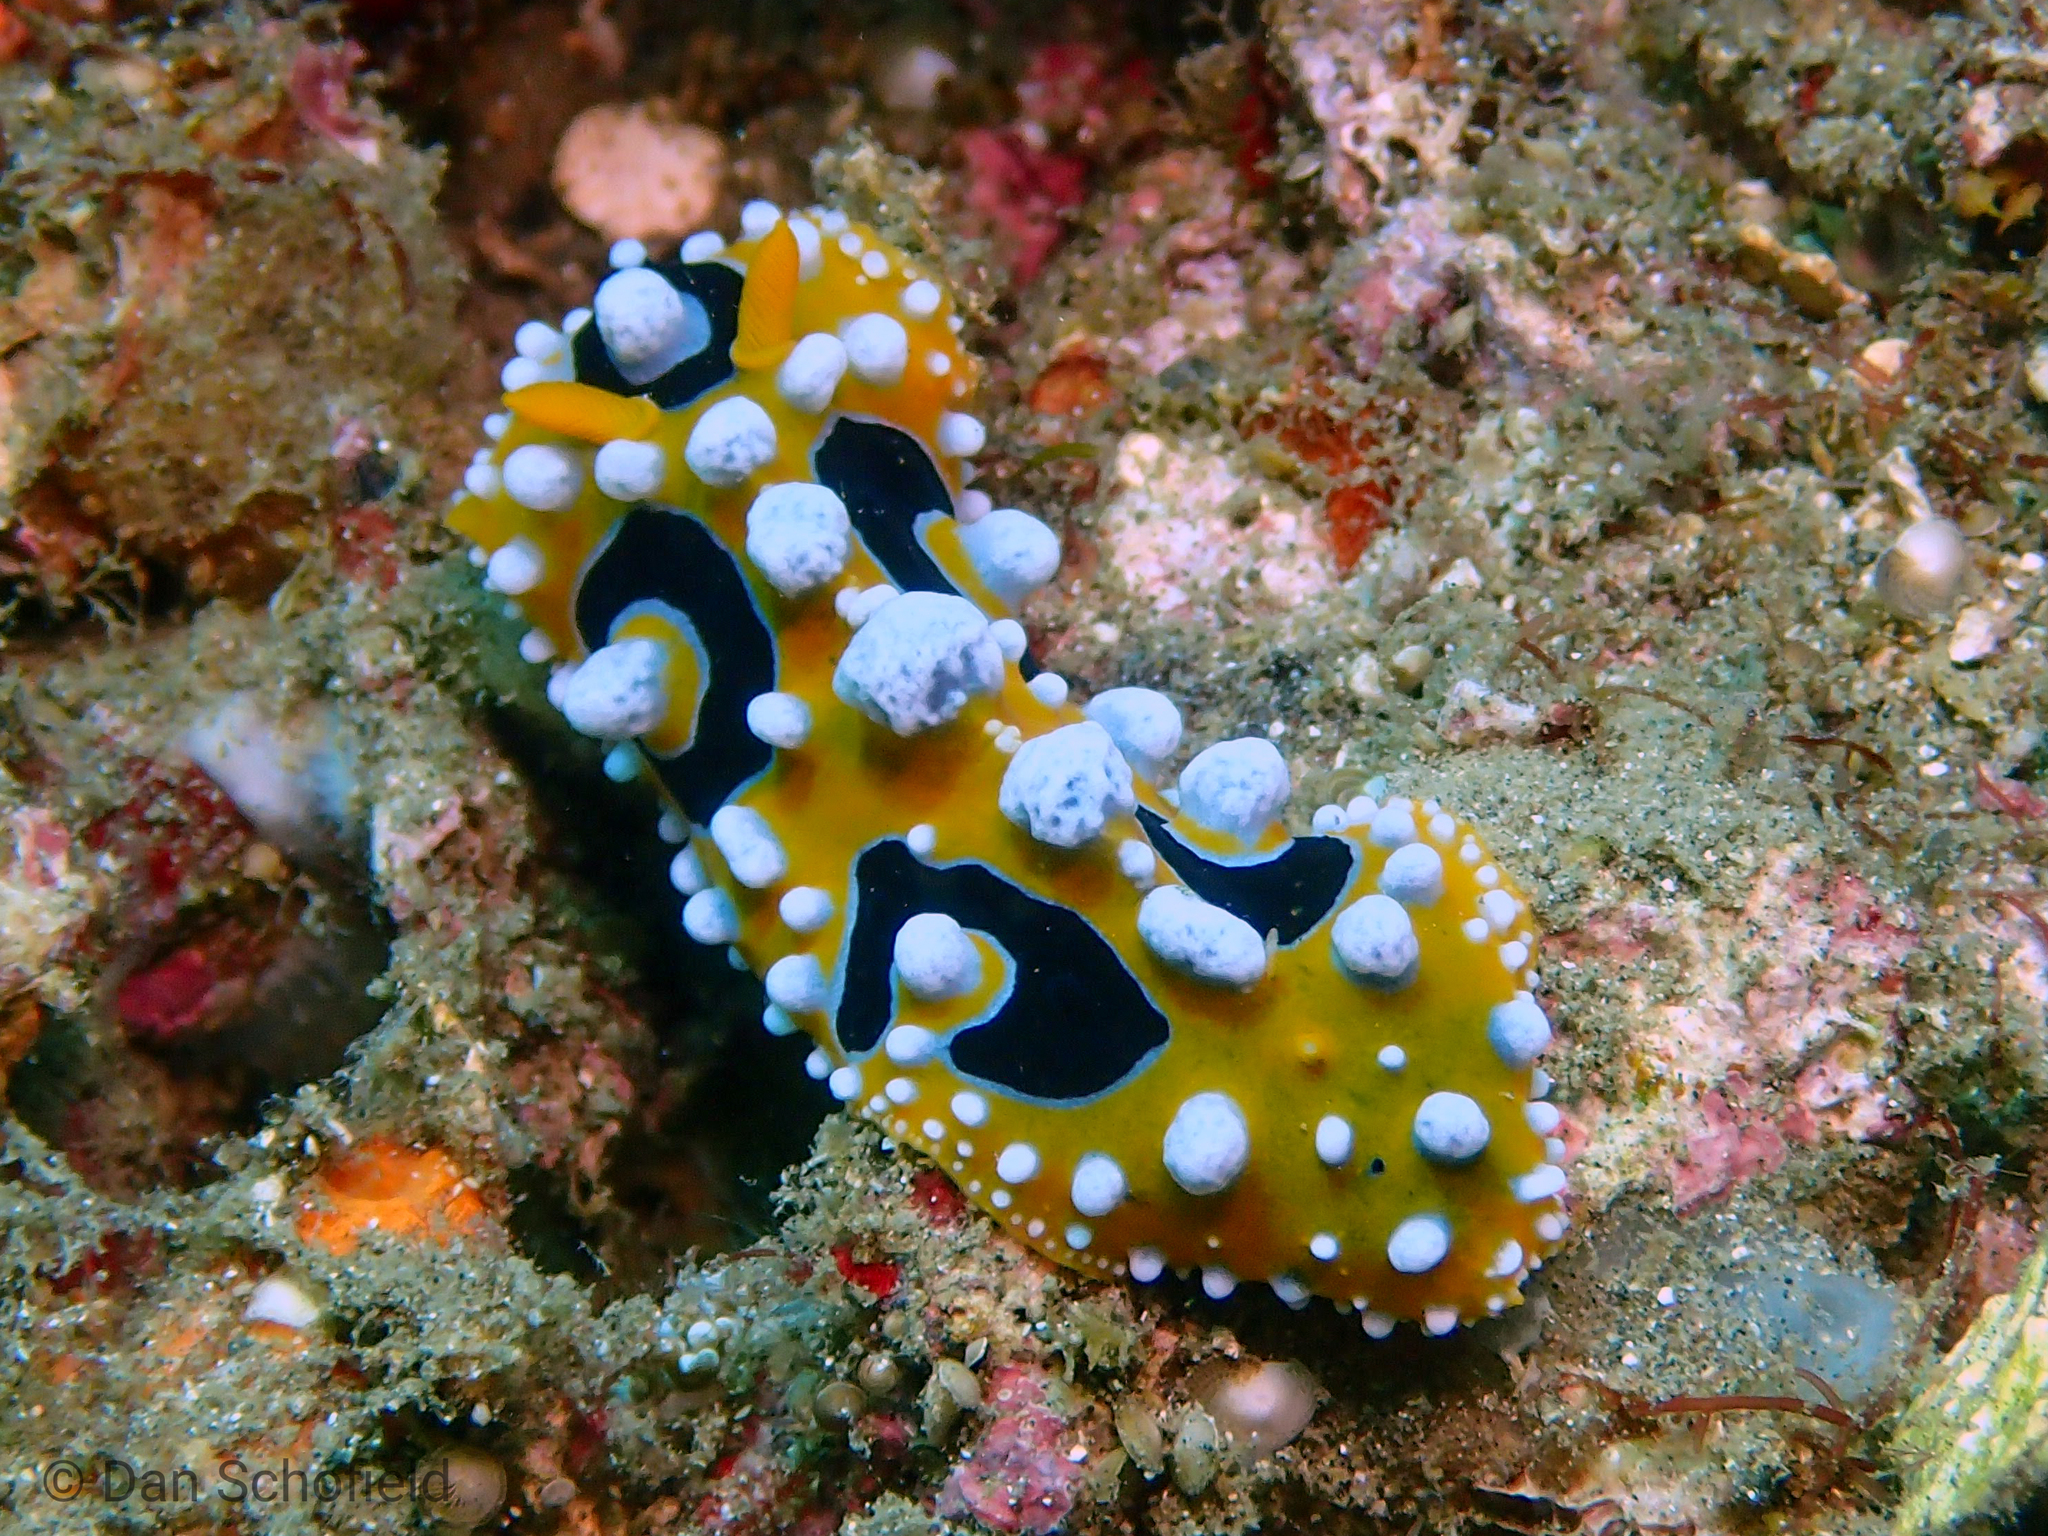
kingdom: Animalia
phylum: Mollusca
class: Gastropoda
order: Nudibranchia
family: Phyllidiidae
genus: Phyllidia
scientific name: Phyllidia ocellata
